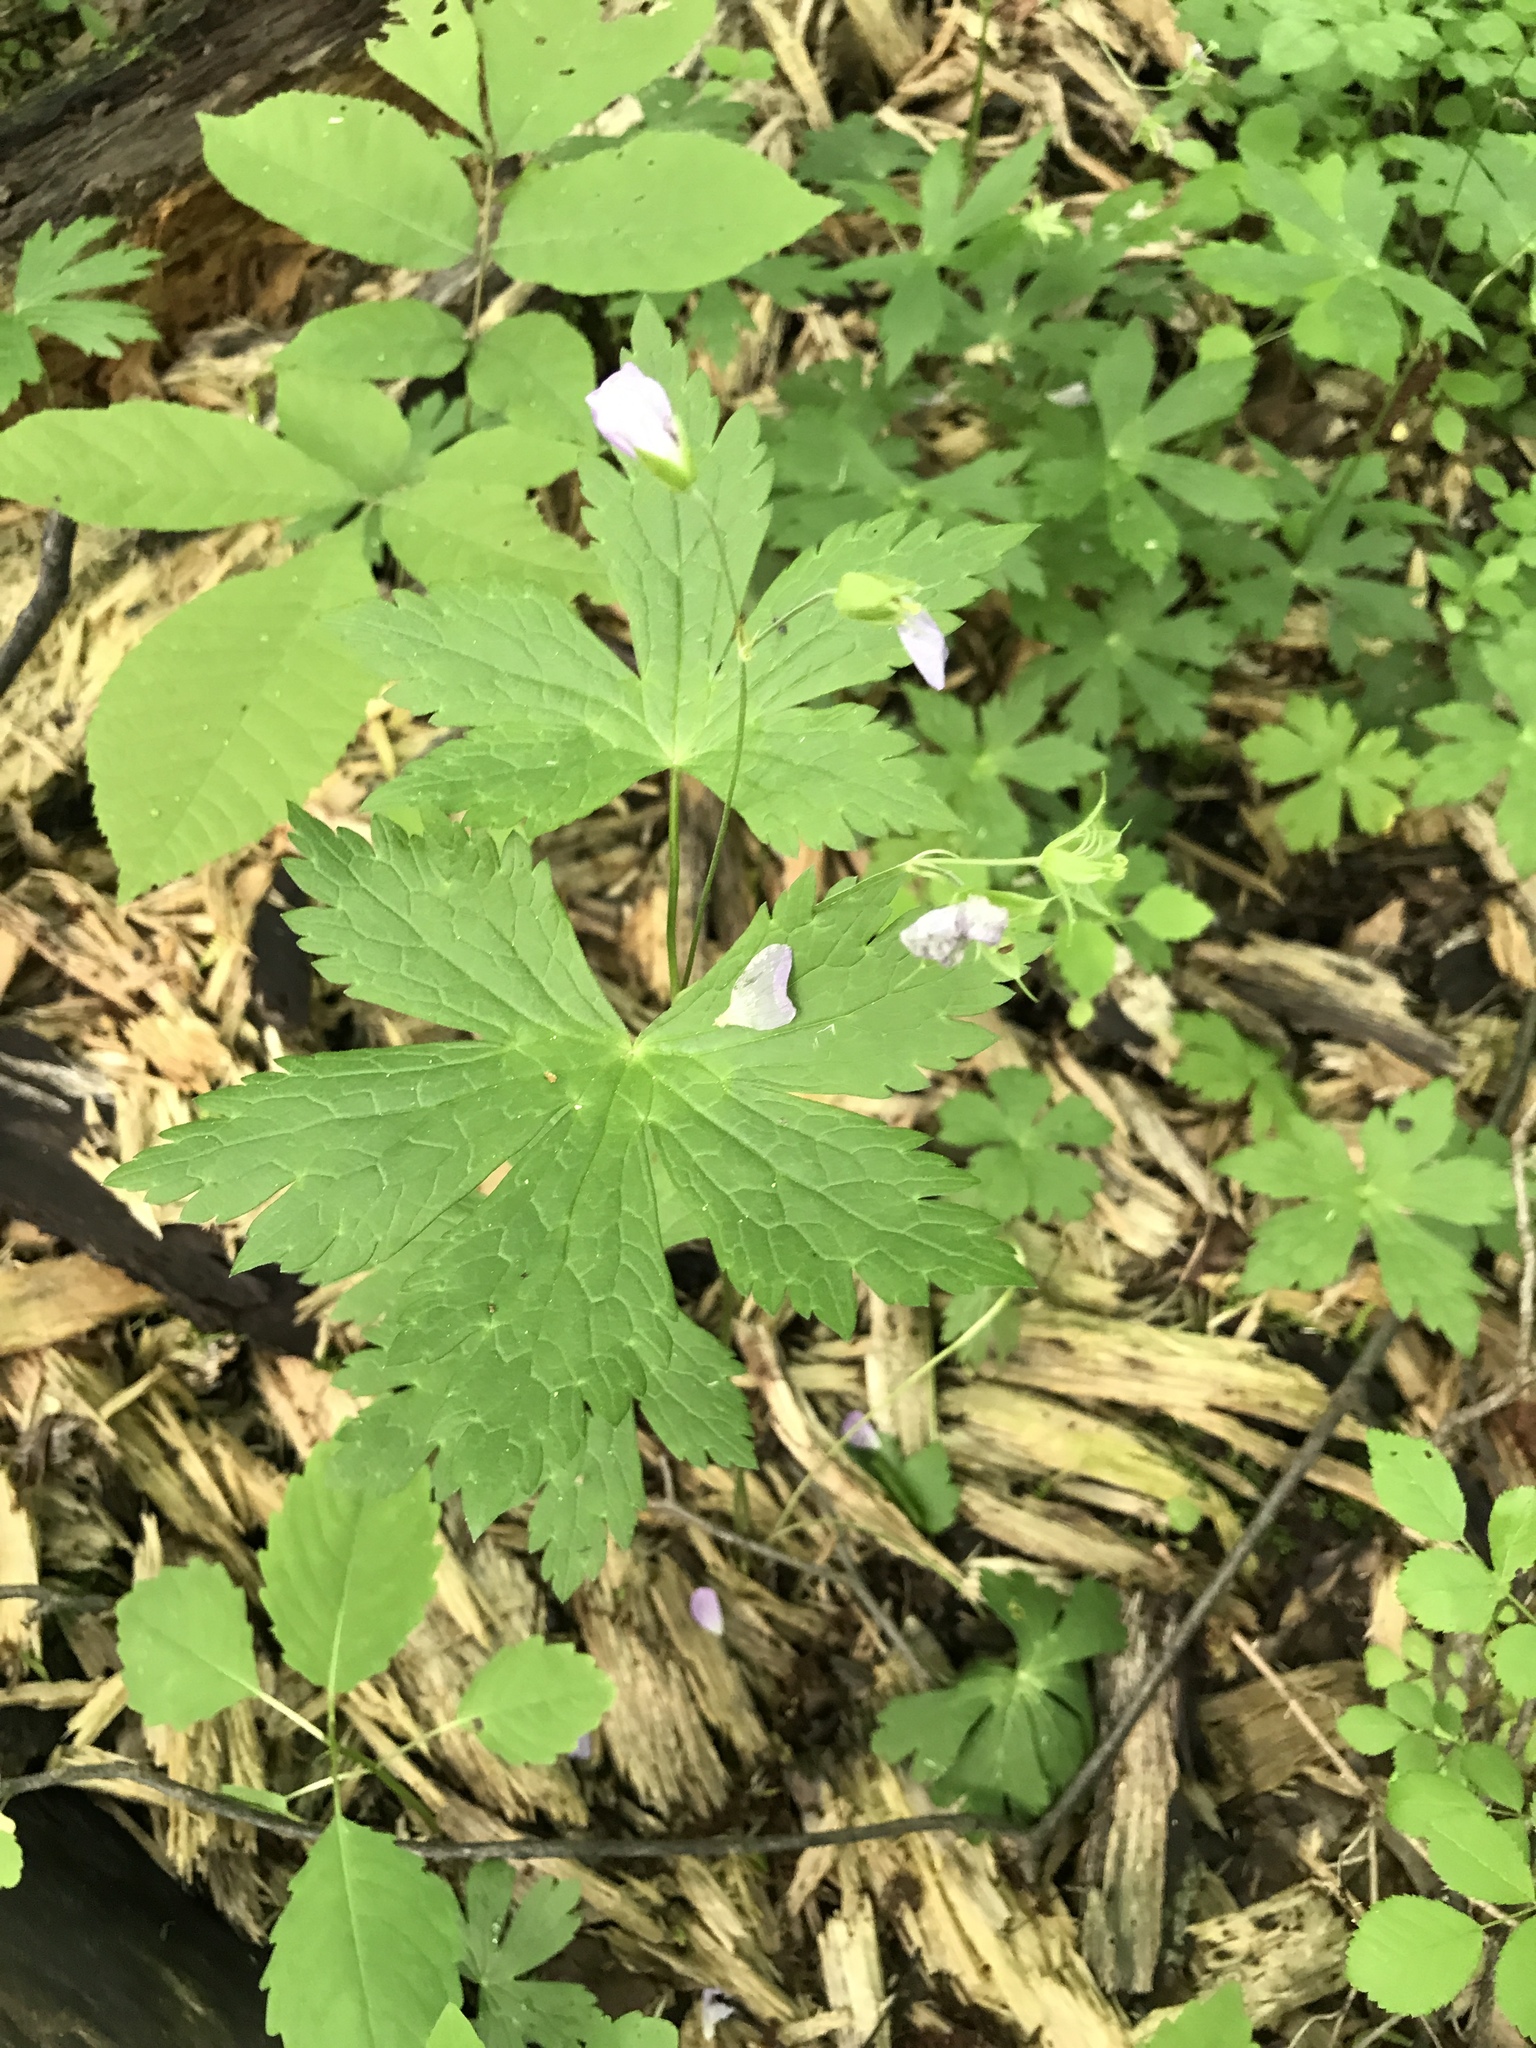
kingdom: Plantae
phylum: Tracheophyta
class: Magnoliopsida
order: Geraniales
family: Geraniaceae
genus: Geranium
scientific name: Geranium maculatum
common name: Spotted geranium
